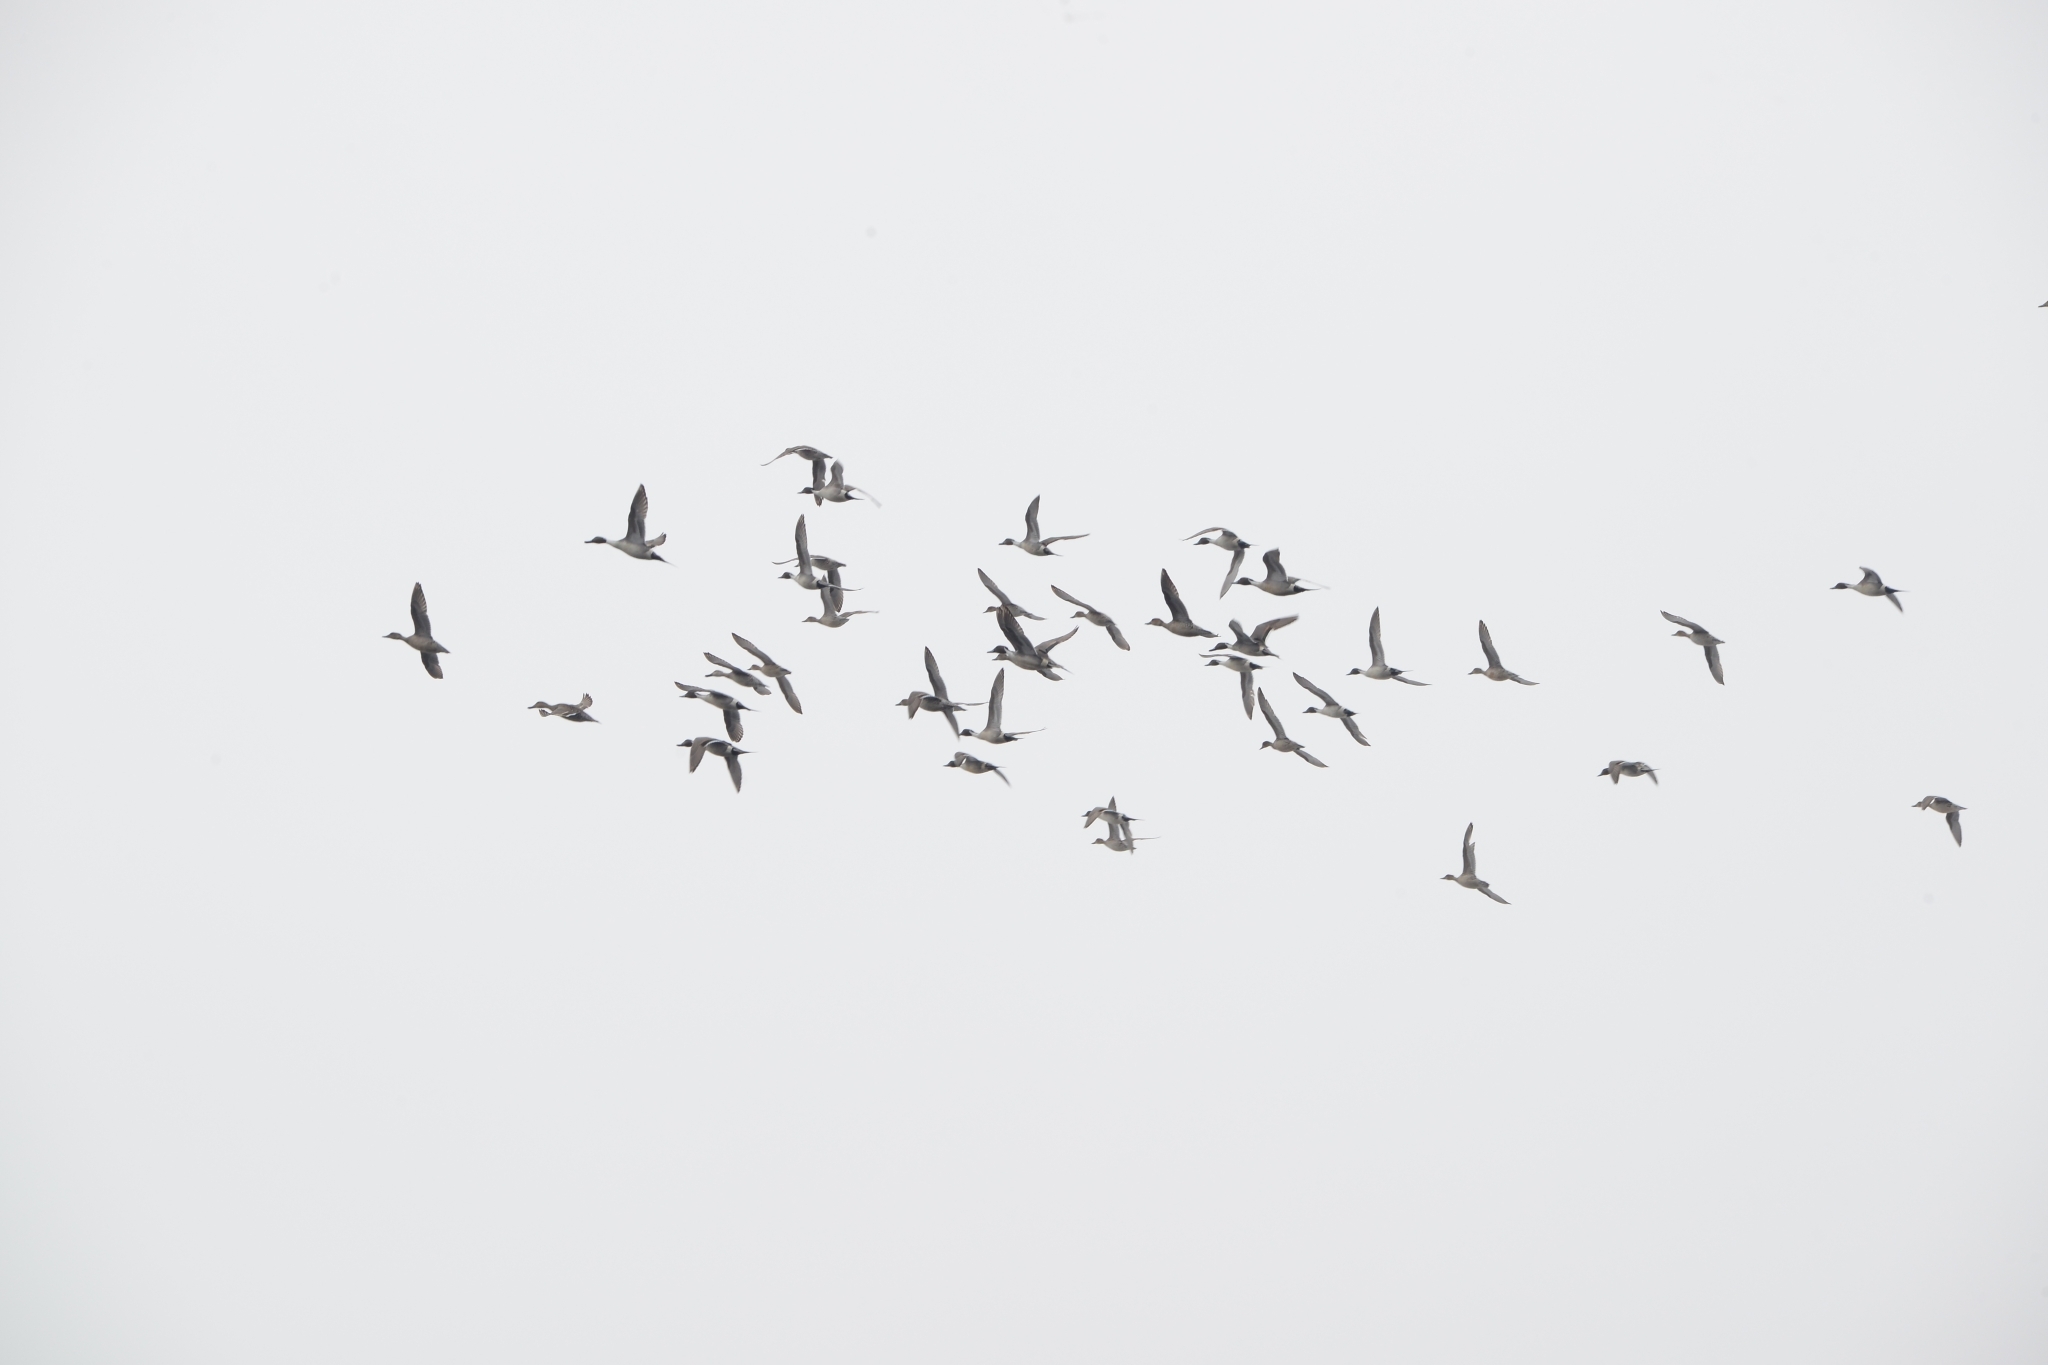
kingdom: Animalia
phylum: Chordata
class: Aves
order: Anseriformes
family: Anatidae
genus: Anas
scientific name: Anas acuta
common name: Northern pintail
